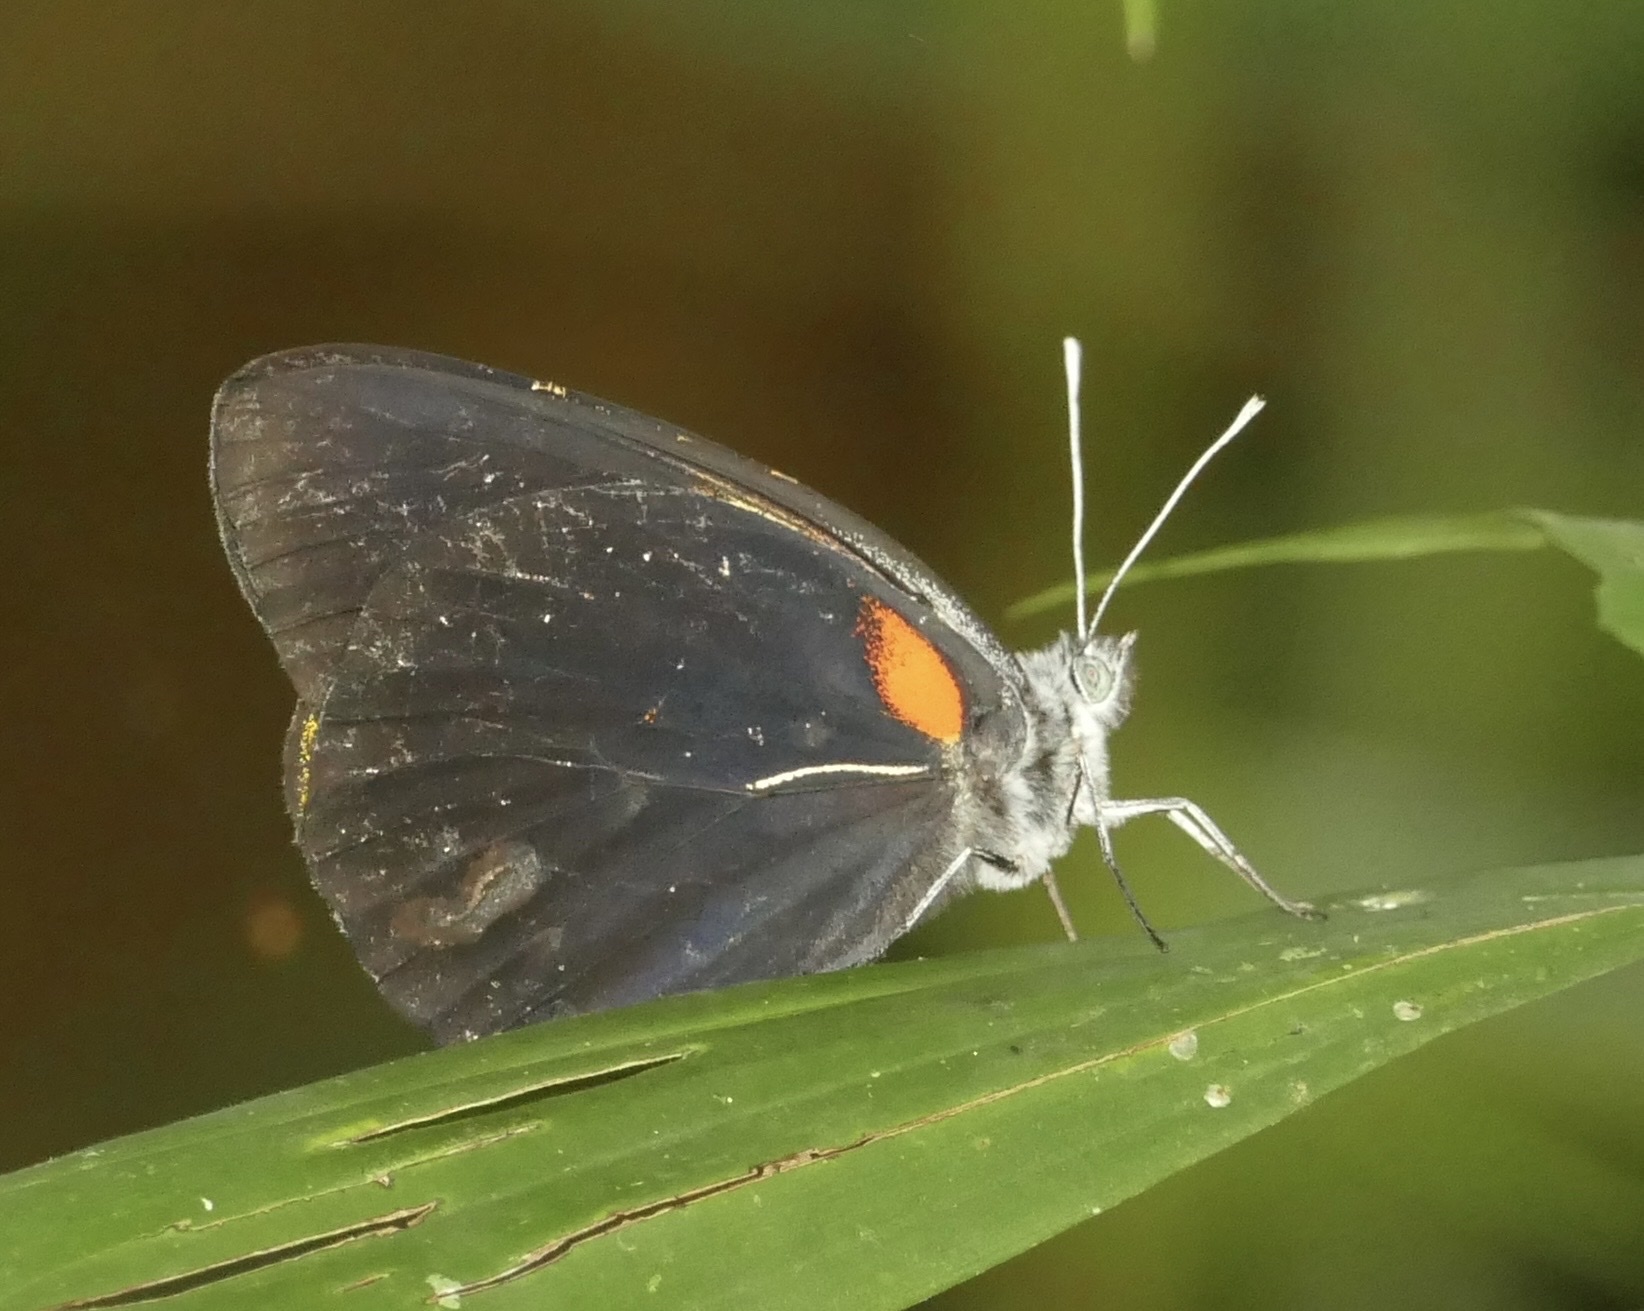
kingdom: Animalia
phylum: Arthropoda
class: Insecta
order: Lepidoptera
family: Pieridae
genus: Delias
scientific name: Delias aruna
